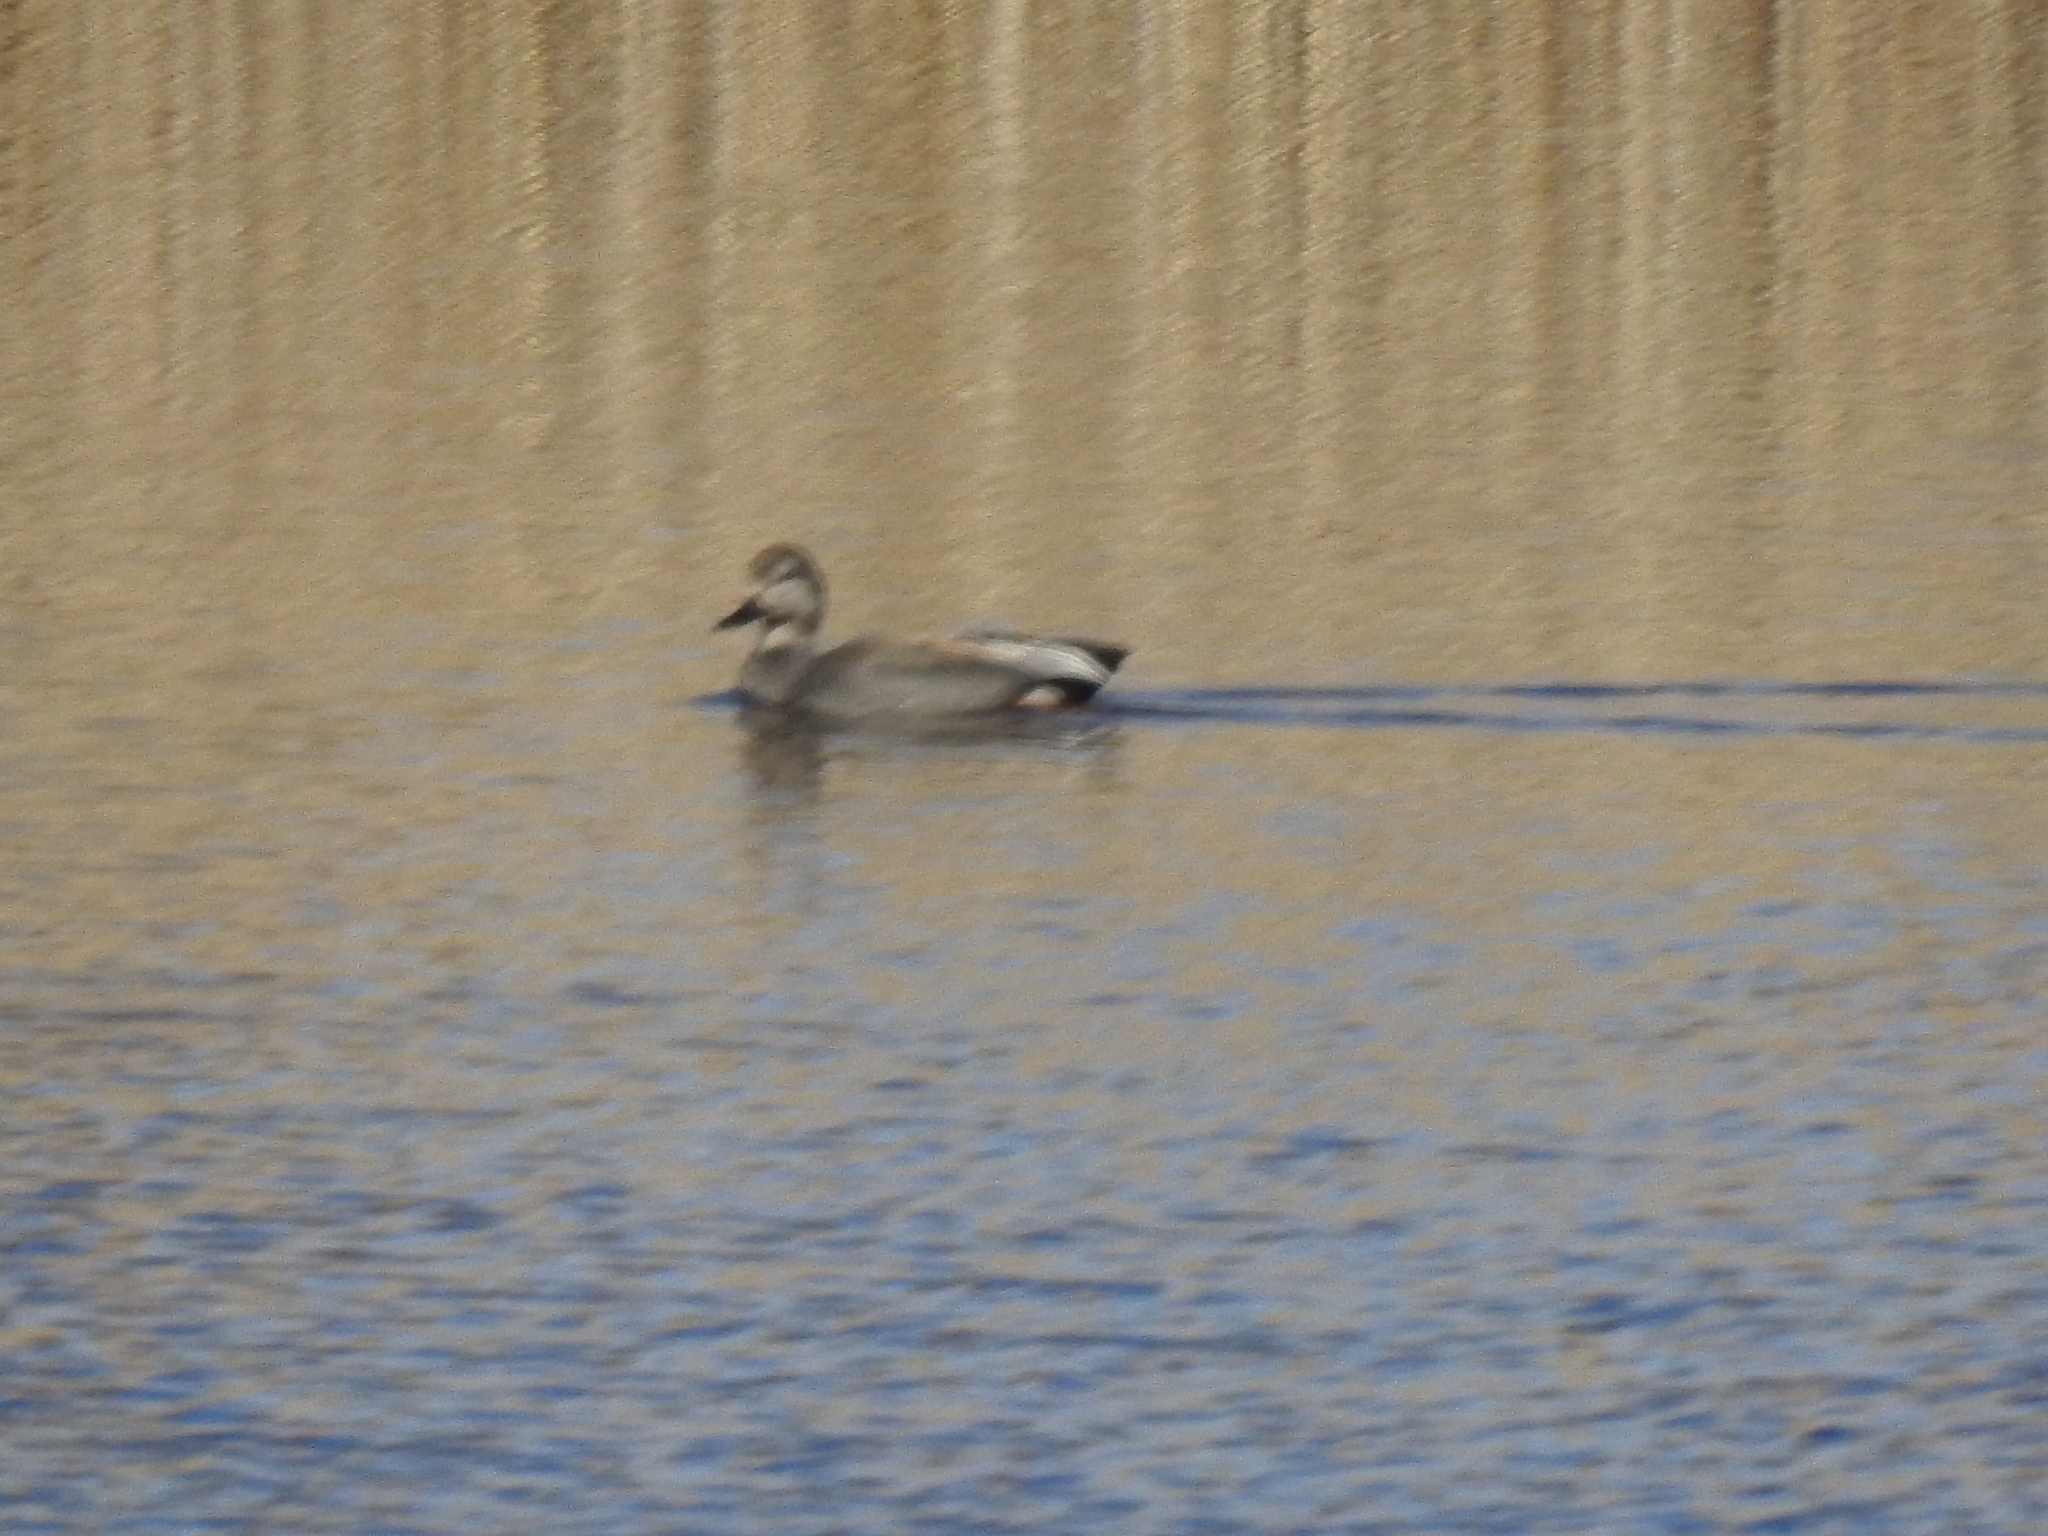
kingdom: Animalia
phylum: Chordata
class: Aves
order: Anseriformes
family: Anatidae
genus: Mareca
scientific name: Mareca strepera
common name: Gadwall
